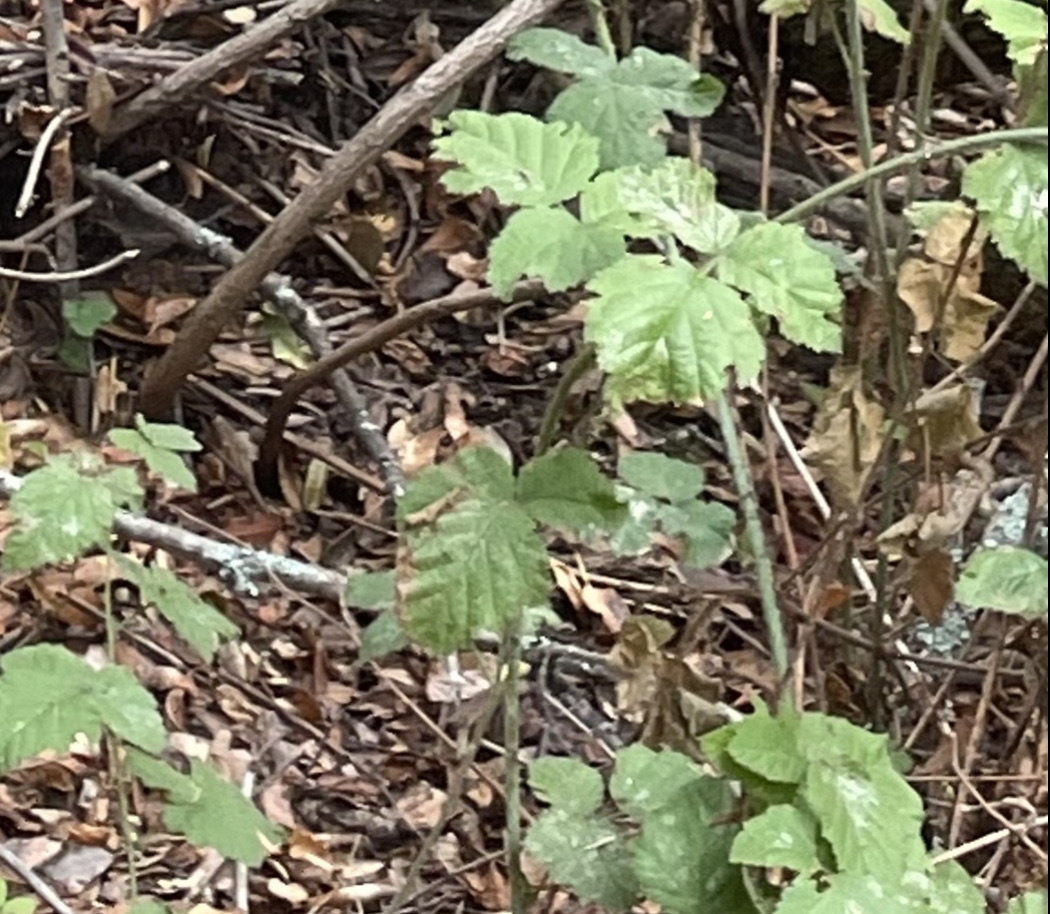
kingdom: Plantae
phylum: Tracheophyta
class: Magnoliopsida
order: Rosales
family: Rosaceae
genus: Rubus
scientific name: Rubus ursinus
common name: Pacific blackberry
